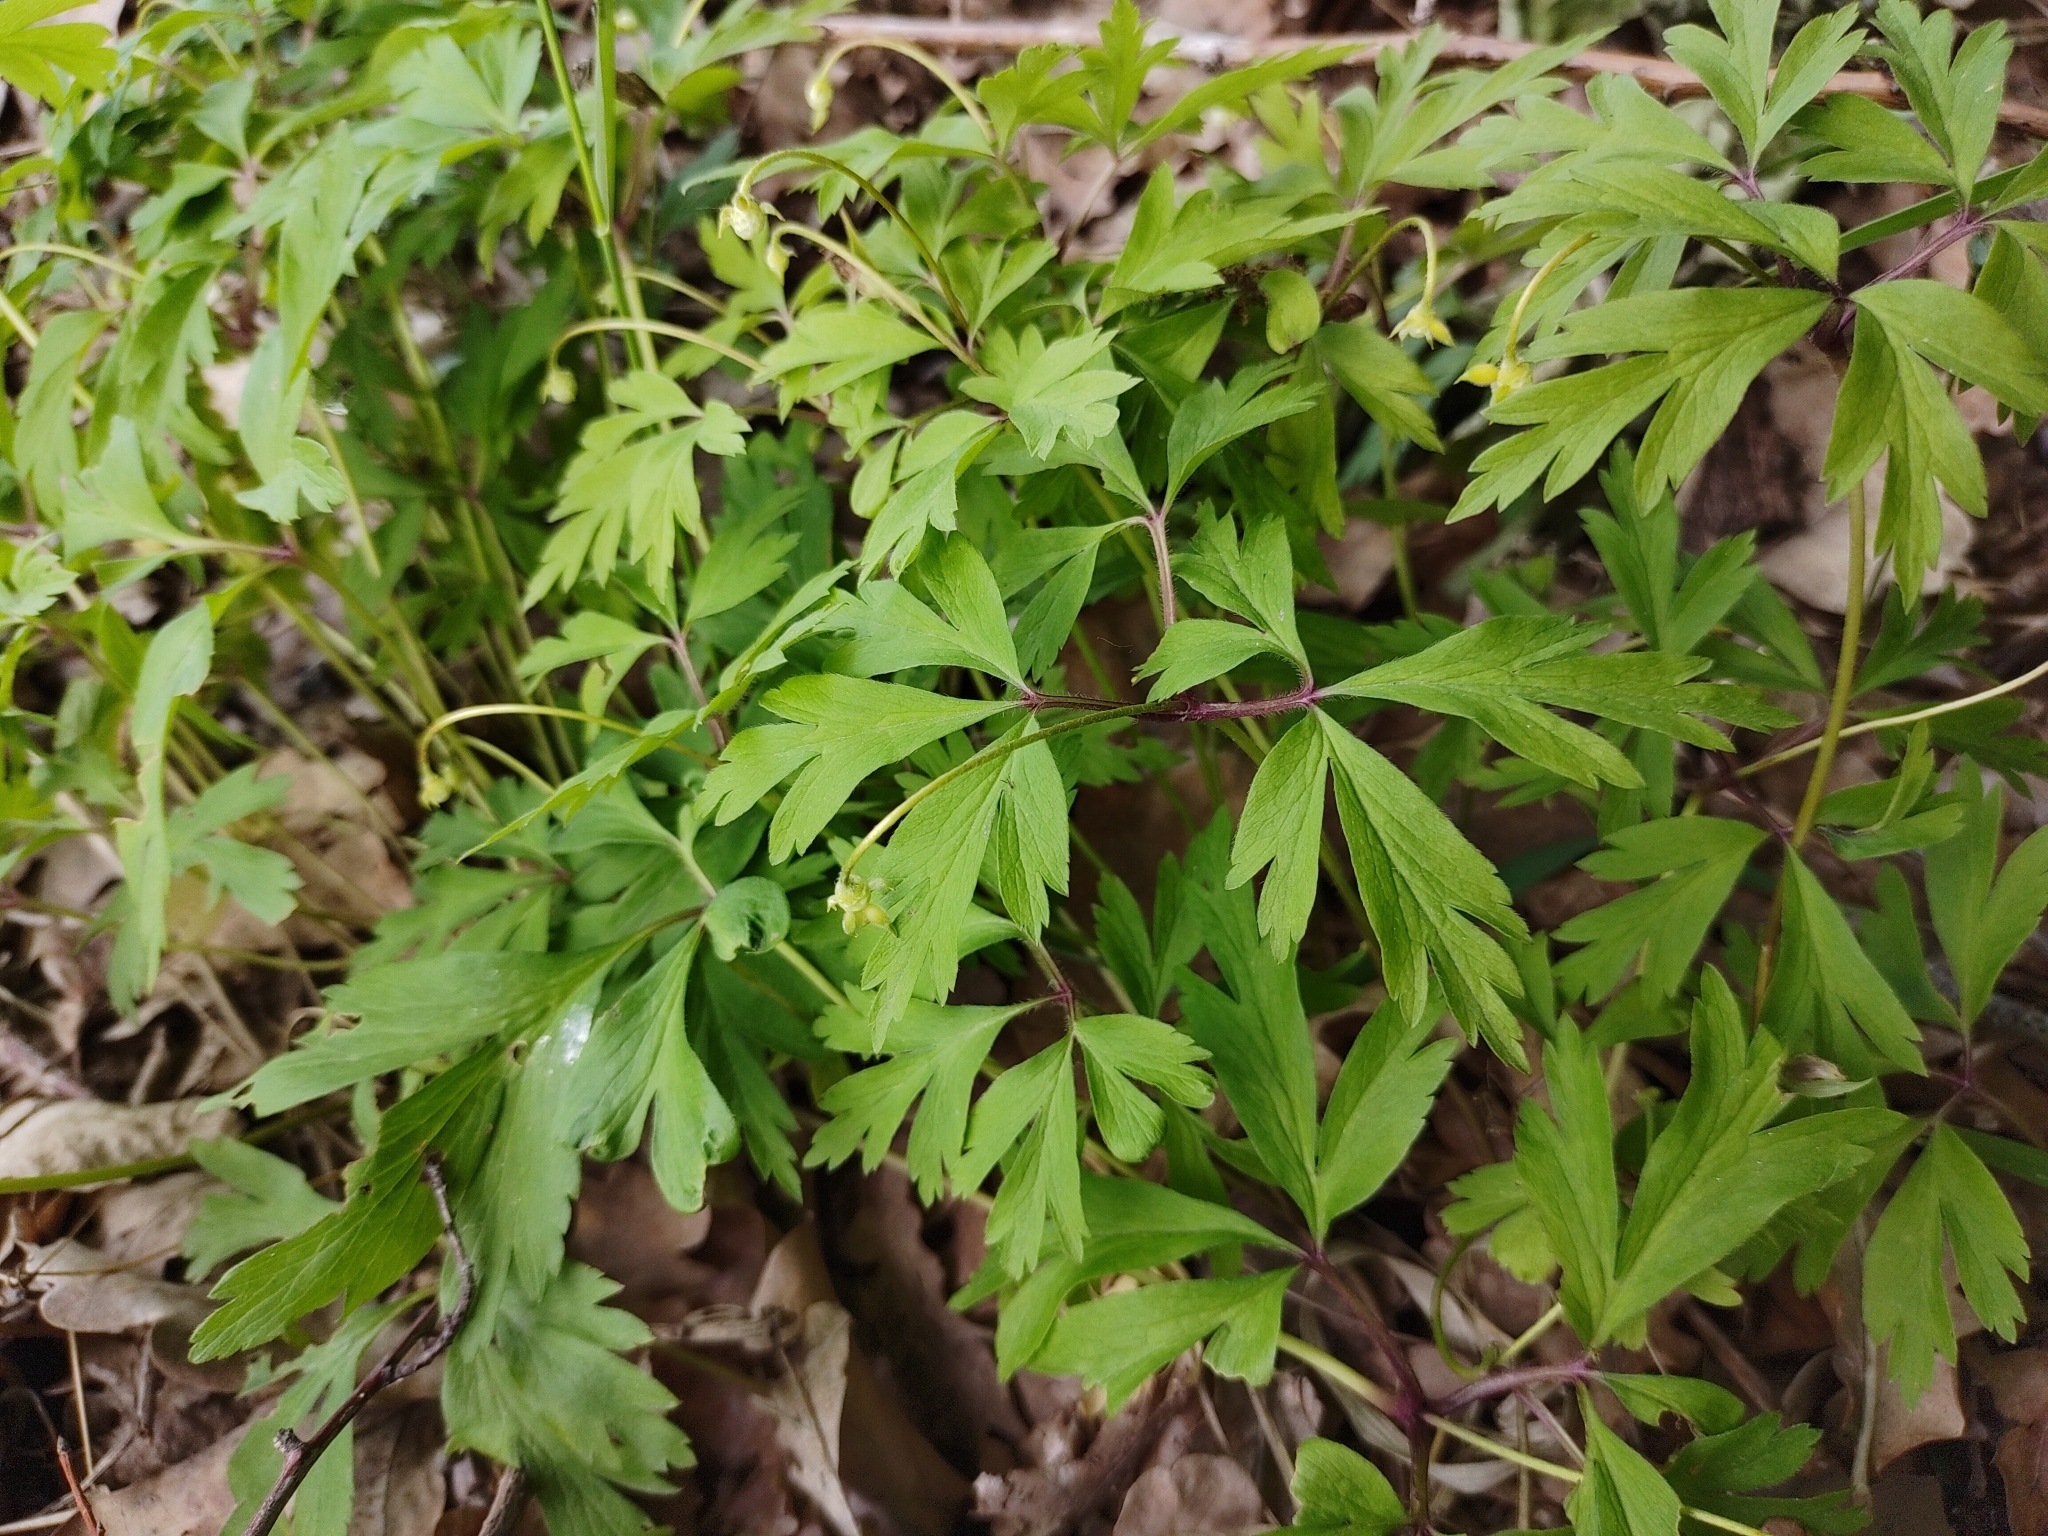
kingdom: Plantae
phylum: Tracheophyta
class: Magnoliopsida
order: Ranunculales
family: Ranunculaceae
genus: Anemone
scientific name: Anemone nemorosa
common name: Wood anemone
